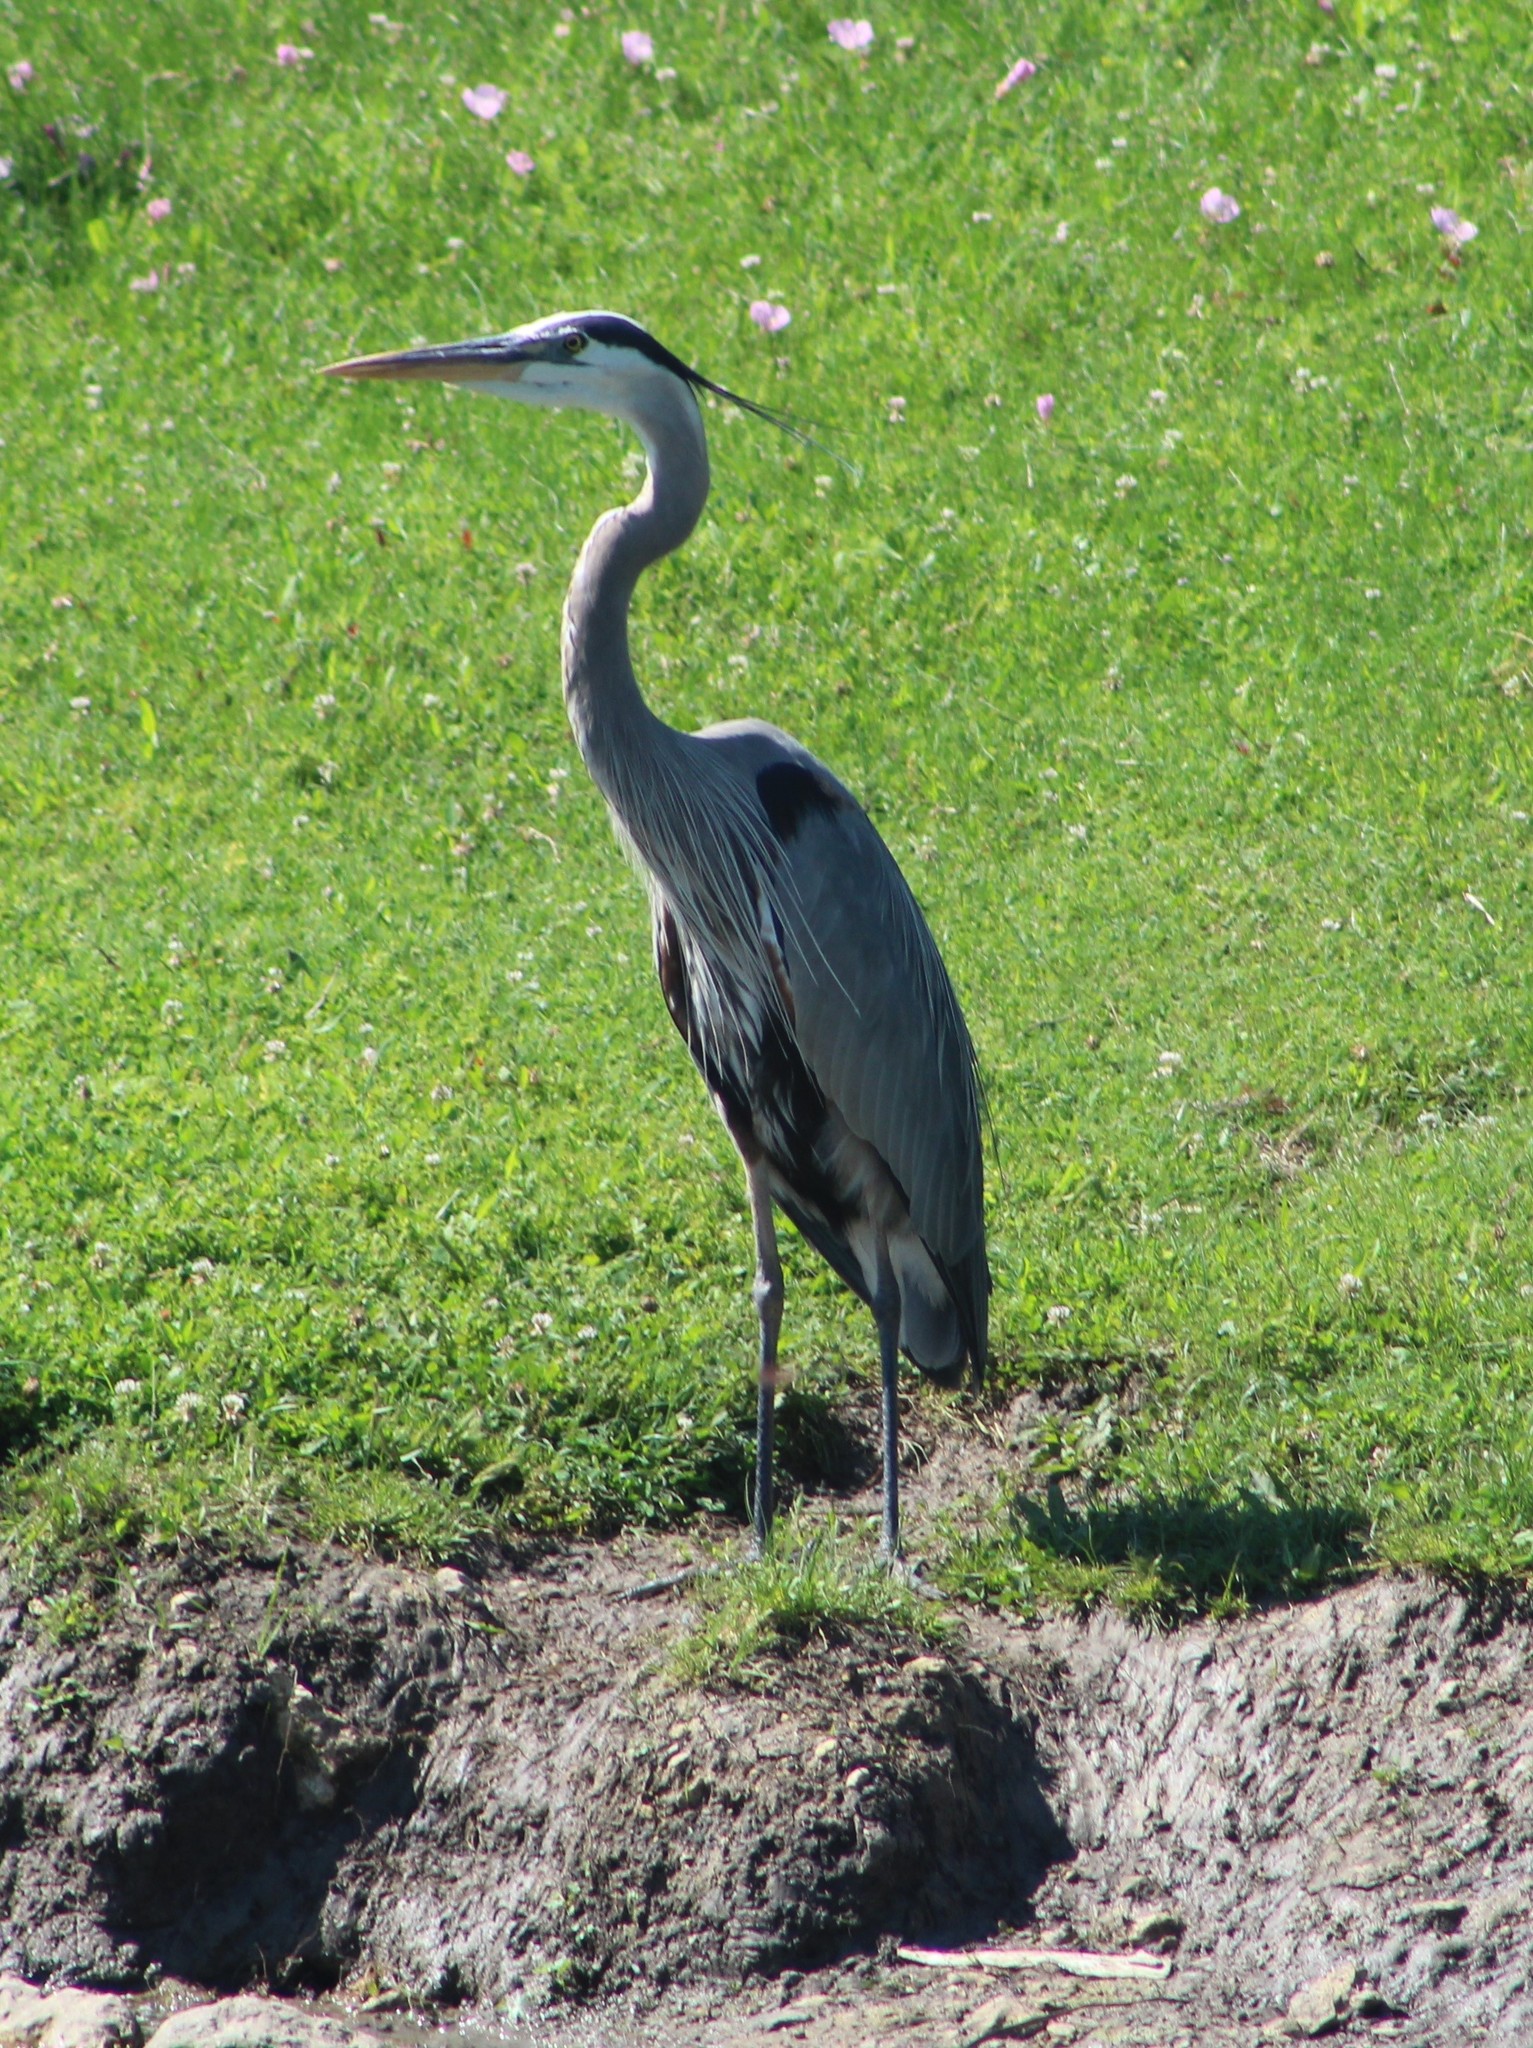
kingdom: Animalia
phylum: Chordata
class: Aves
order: Pelecaniformes
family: Ardeidae
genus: Ardea
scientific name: Ardea herodias
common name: Great blue heron
